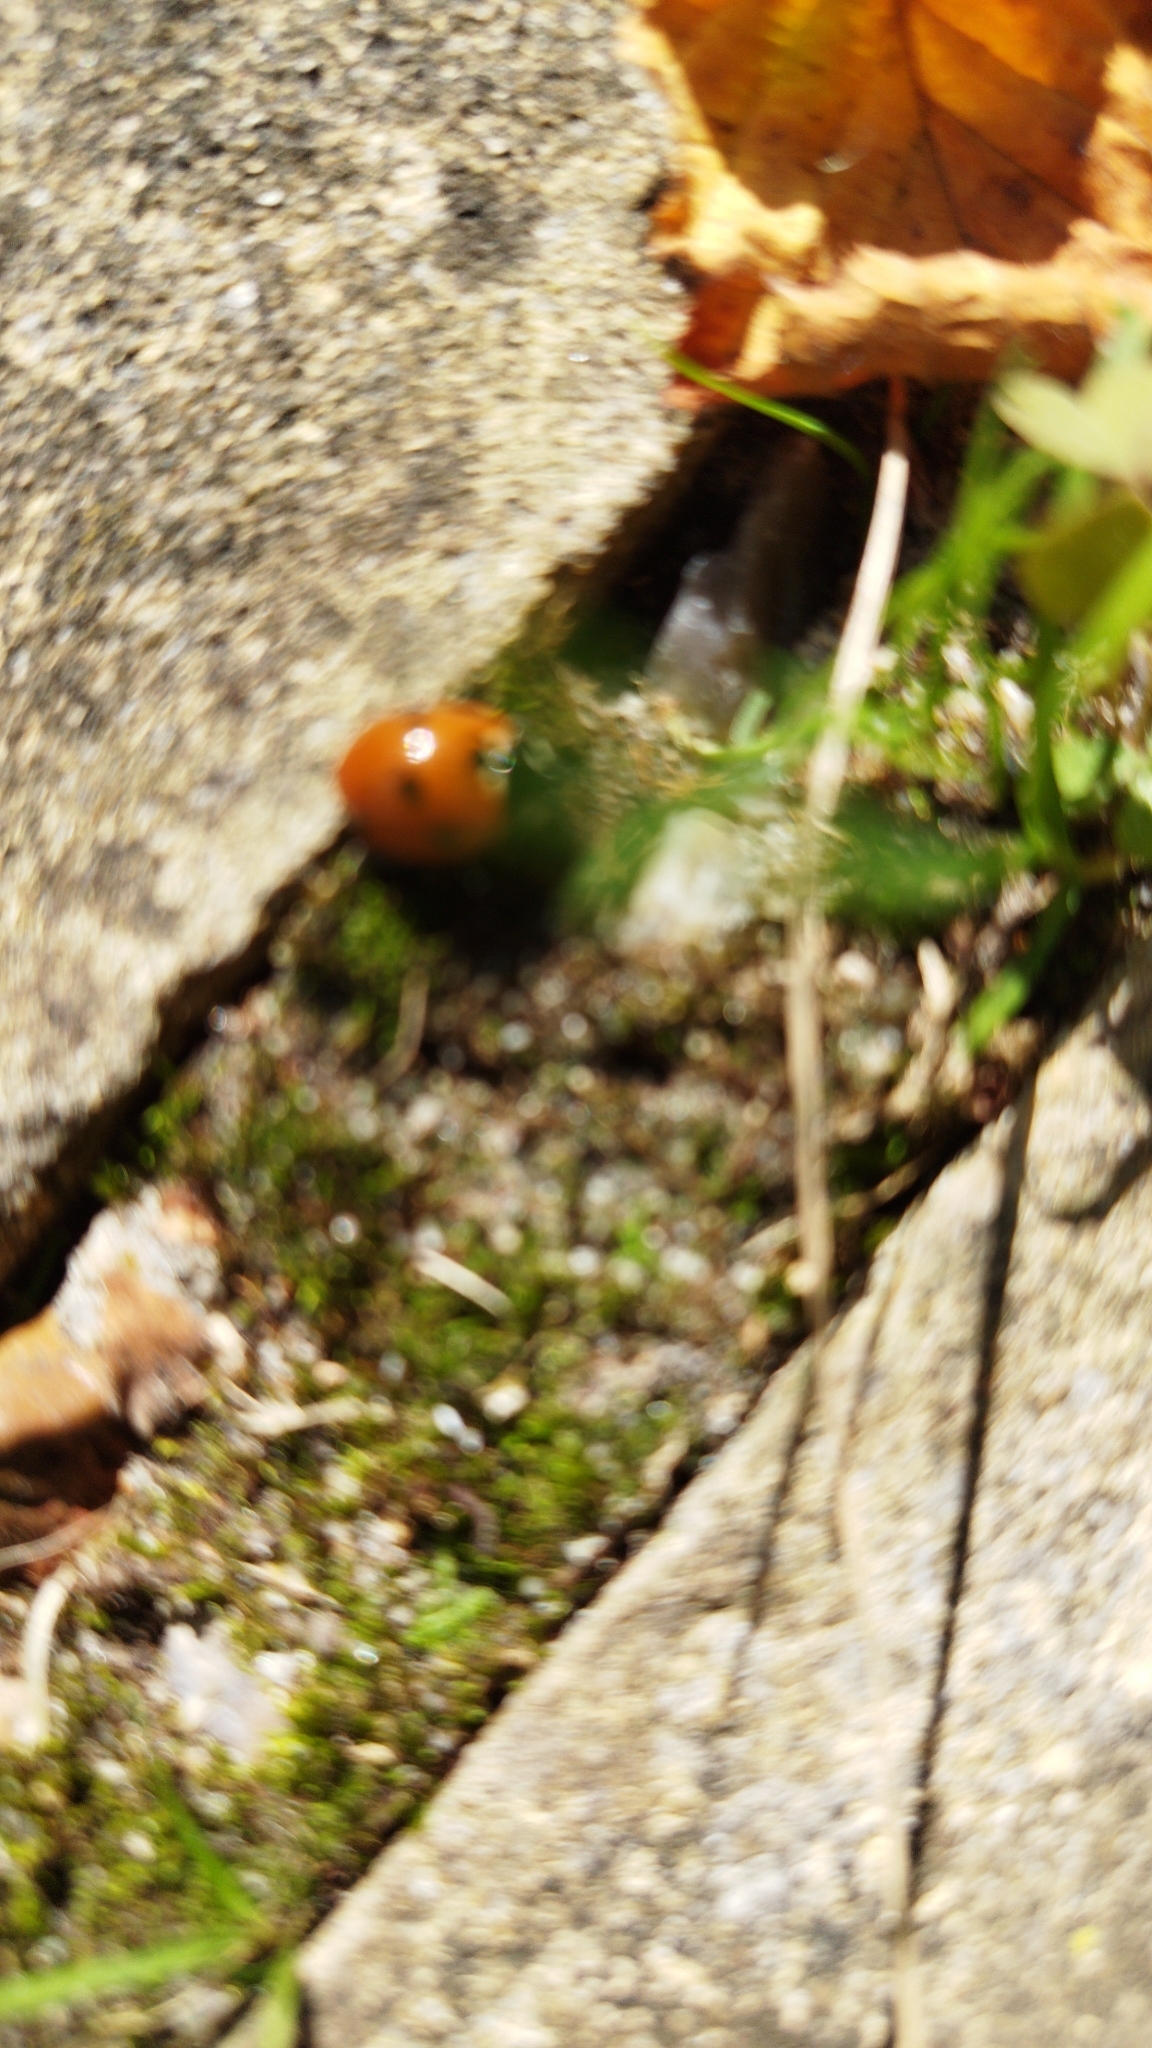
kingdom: Animalia
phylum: Arthropoda
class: Insecta
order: Coleoptera
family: Coccinellidae
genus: Coccinella
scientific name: Coccinella septempunctata
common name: Sevenspotted lady beetle
